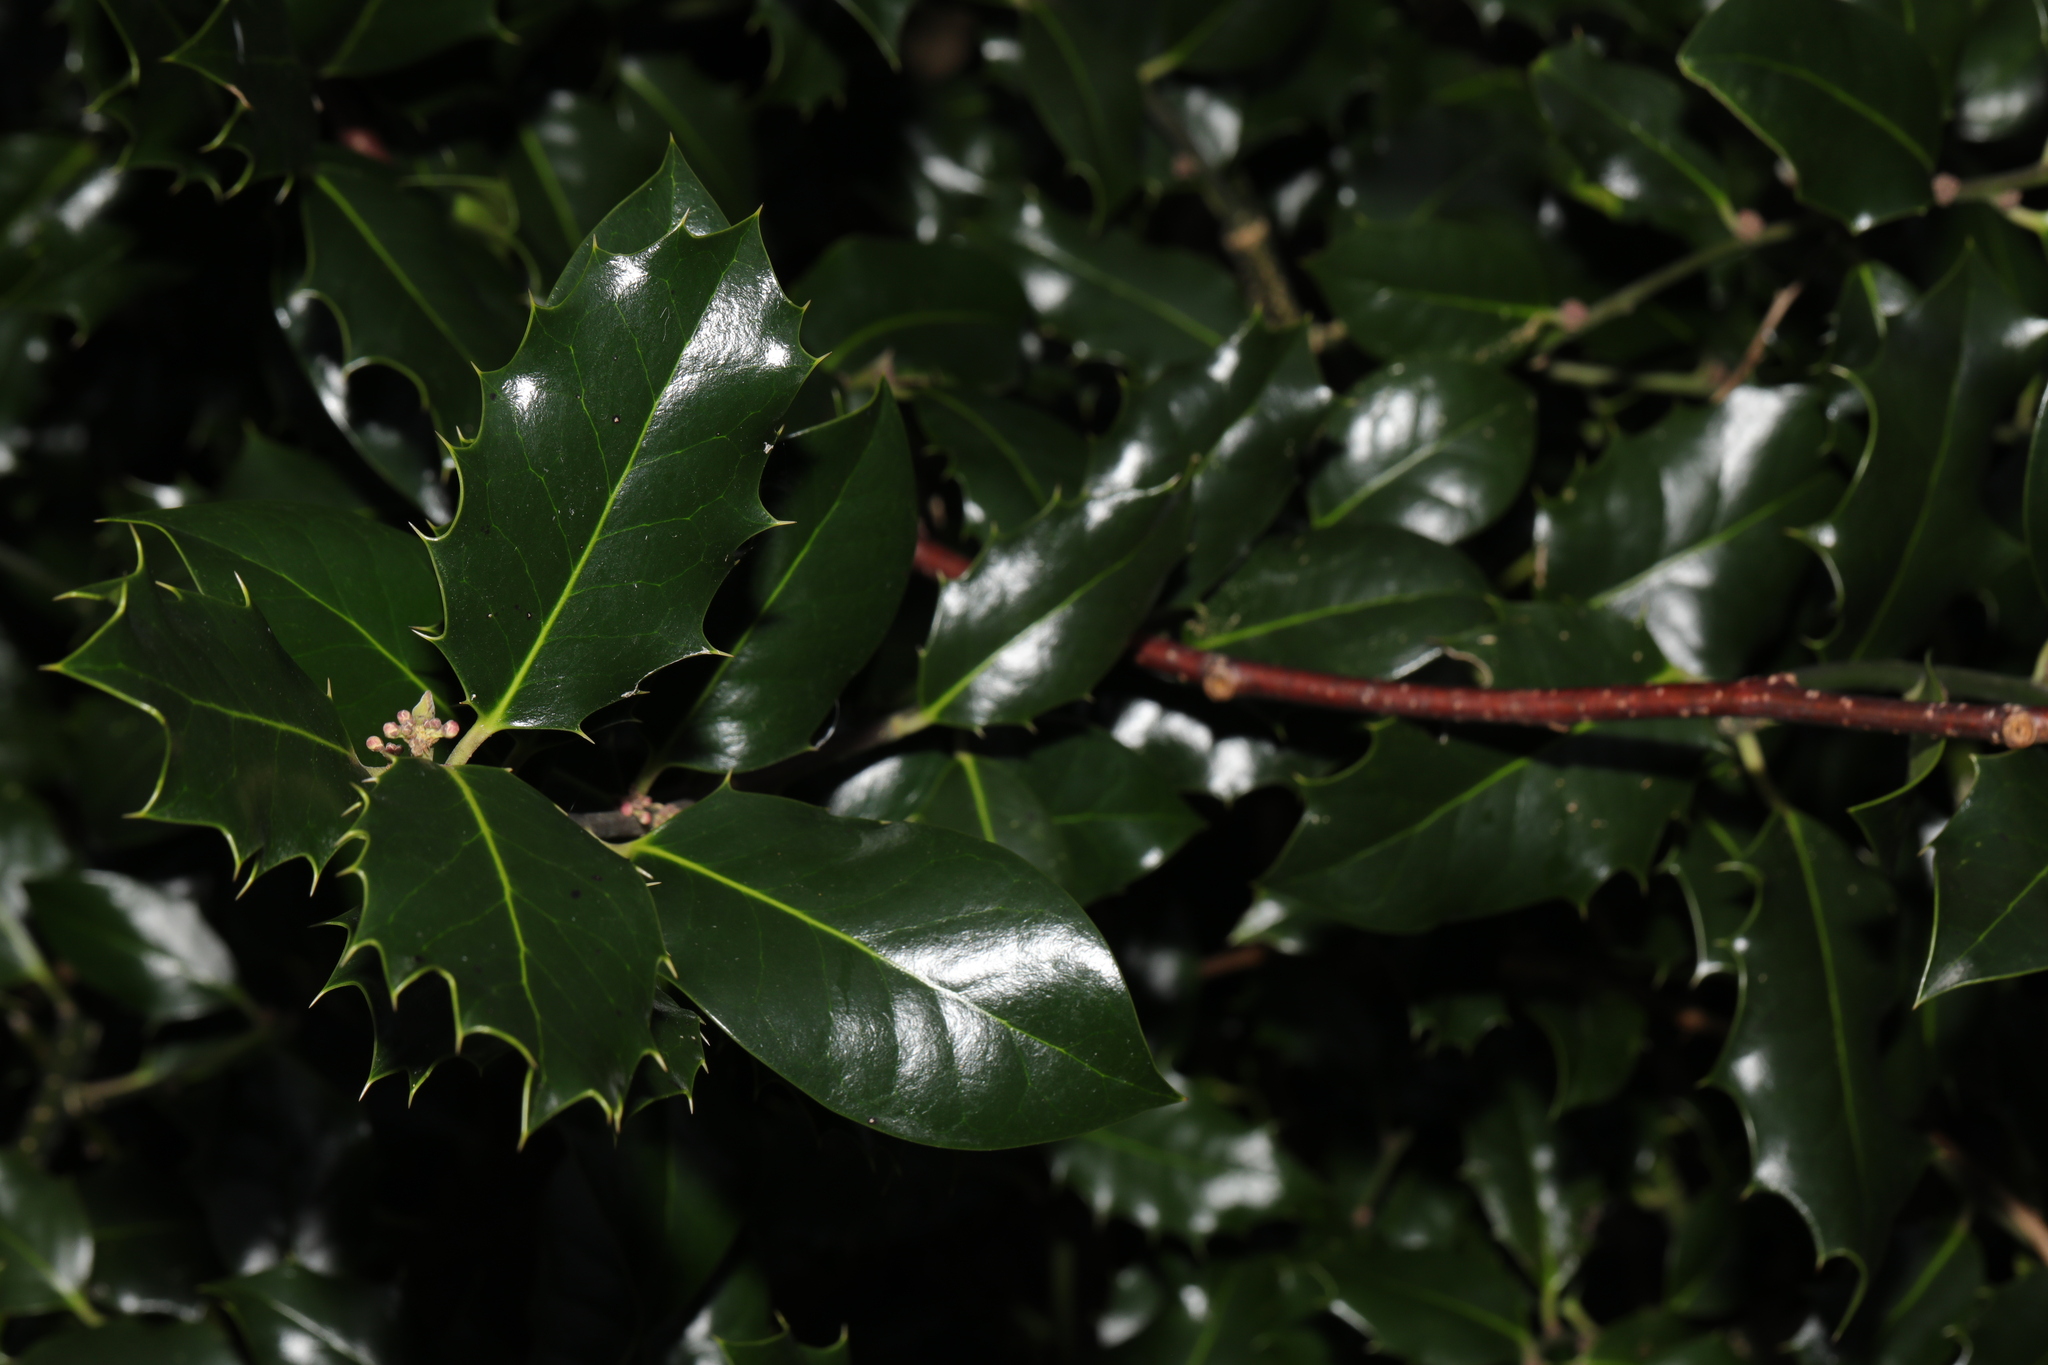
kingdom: Plantae
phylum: Tracheophyta
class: Magnoliopsida
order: Aquifoliales
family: Aquifoliaceae
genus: Ilex
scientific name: Ilex aquifolium
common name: English holly
